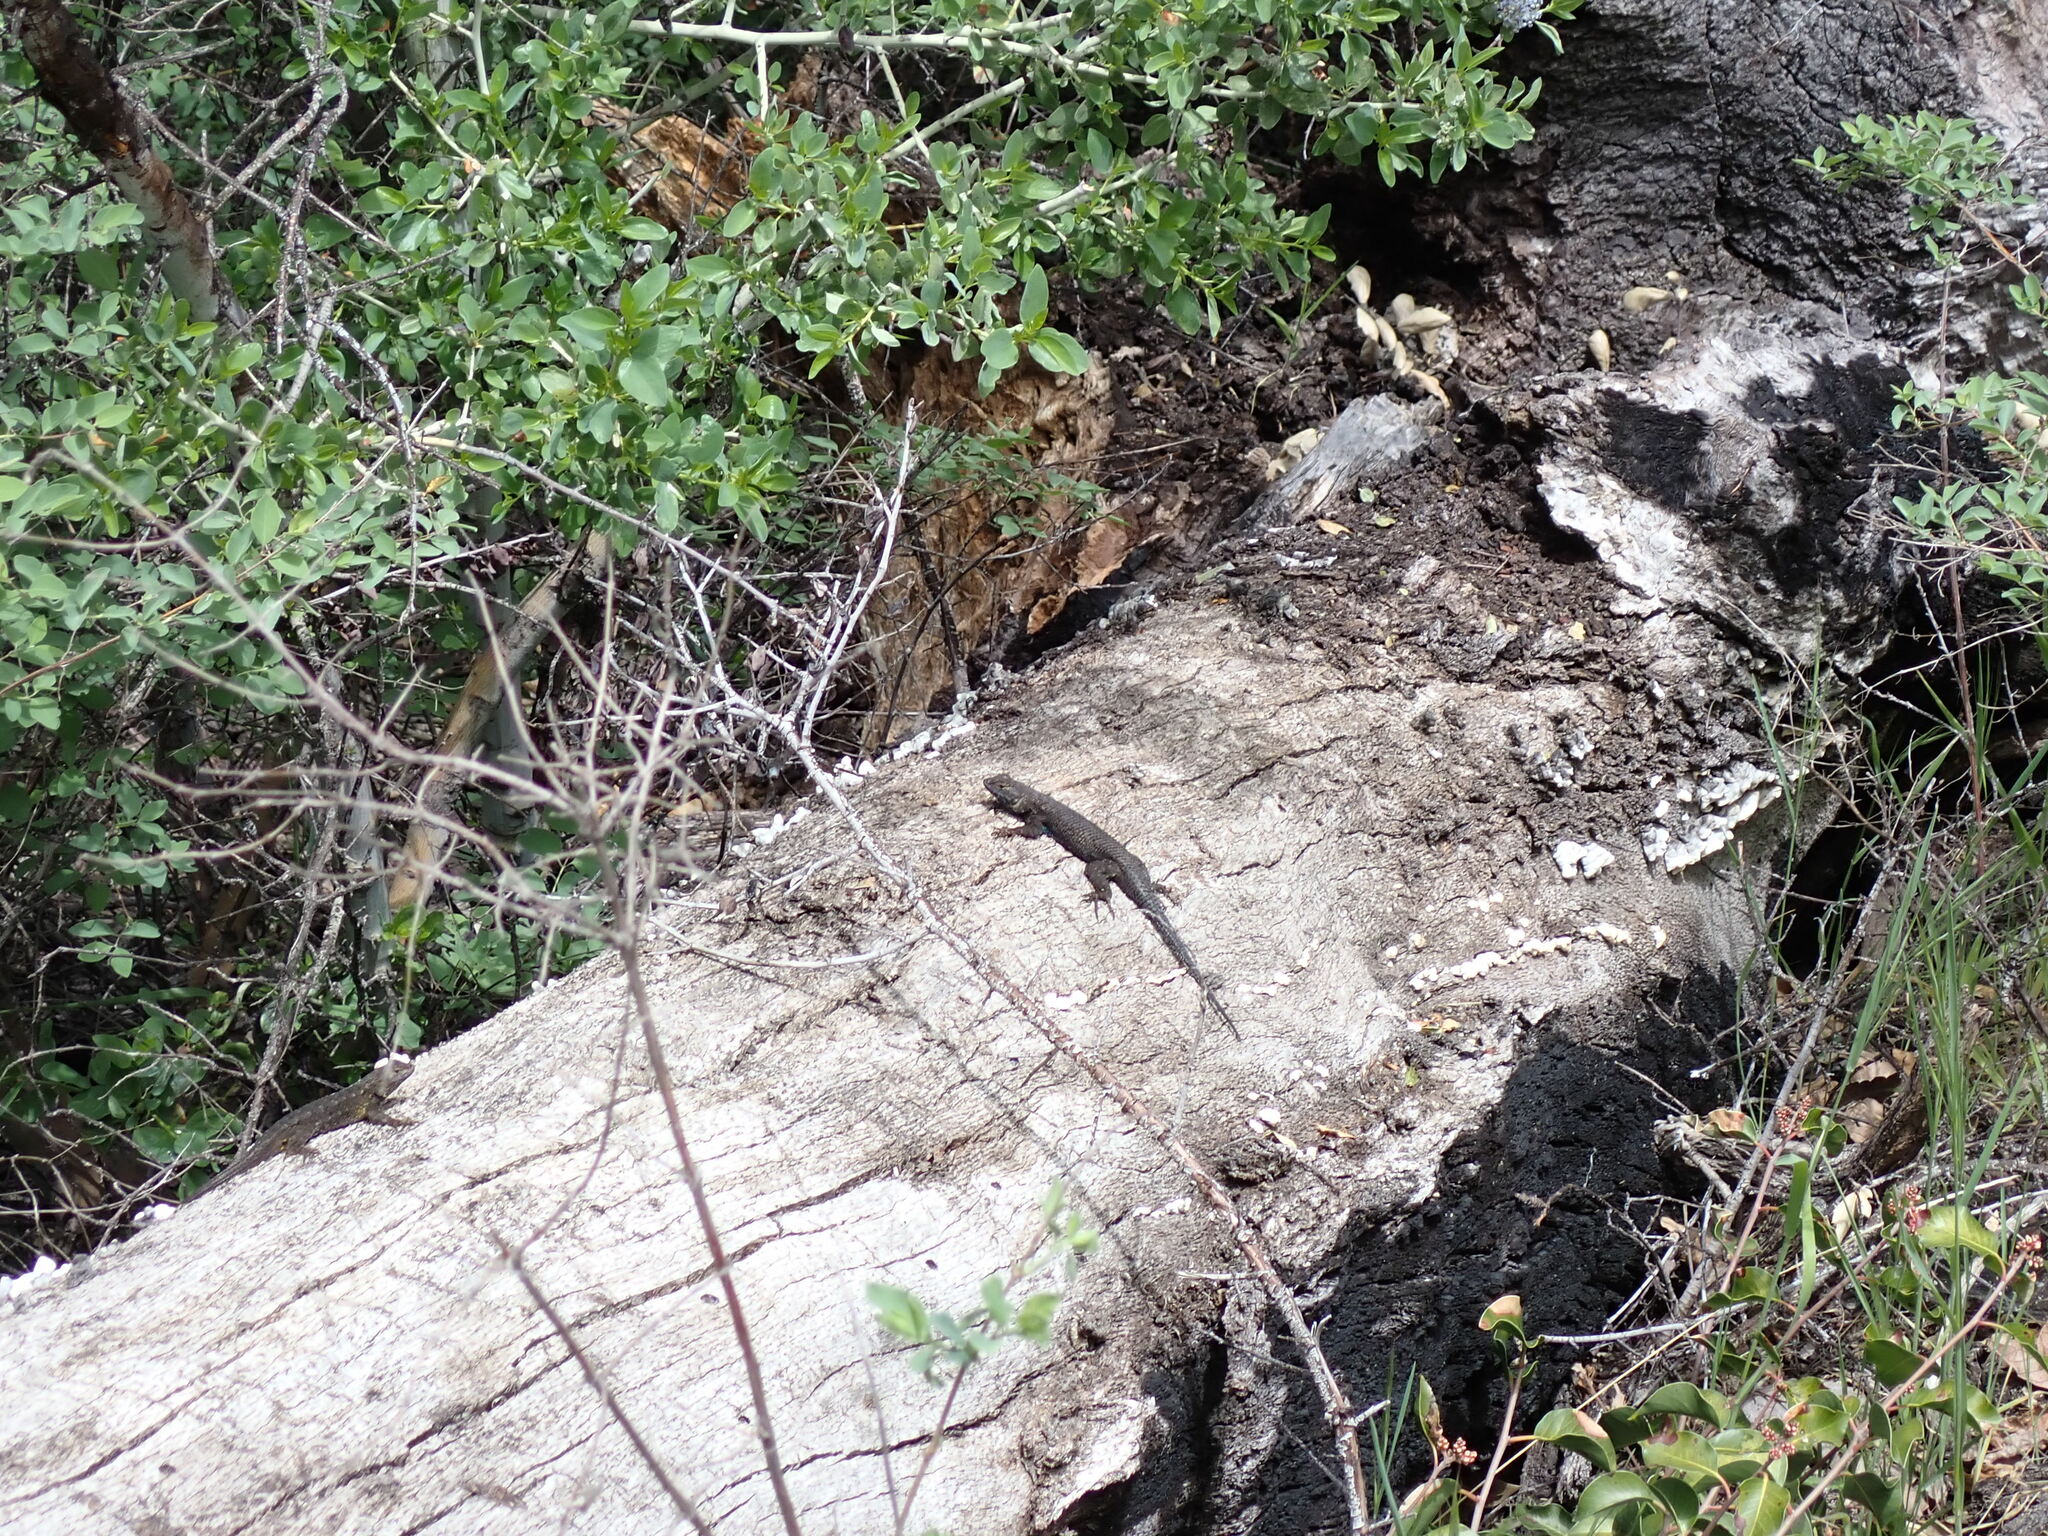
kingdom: Animalia
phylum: Chordata
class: Squamata
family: Phrynosomatidae
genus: Sceloporus
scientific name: Sceloporus occidentalis
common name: Western fence lizard
